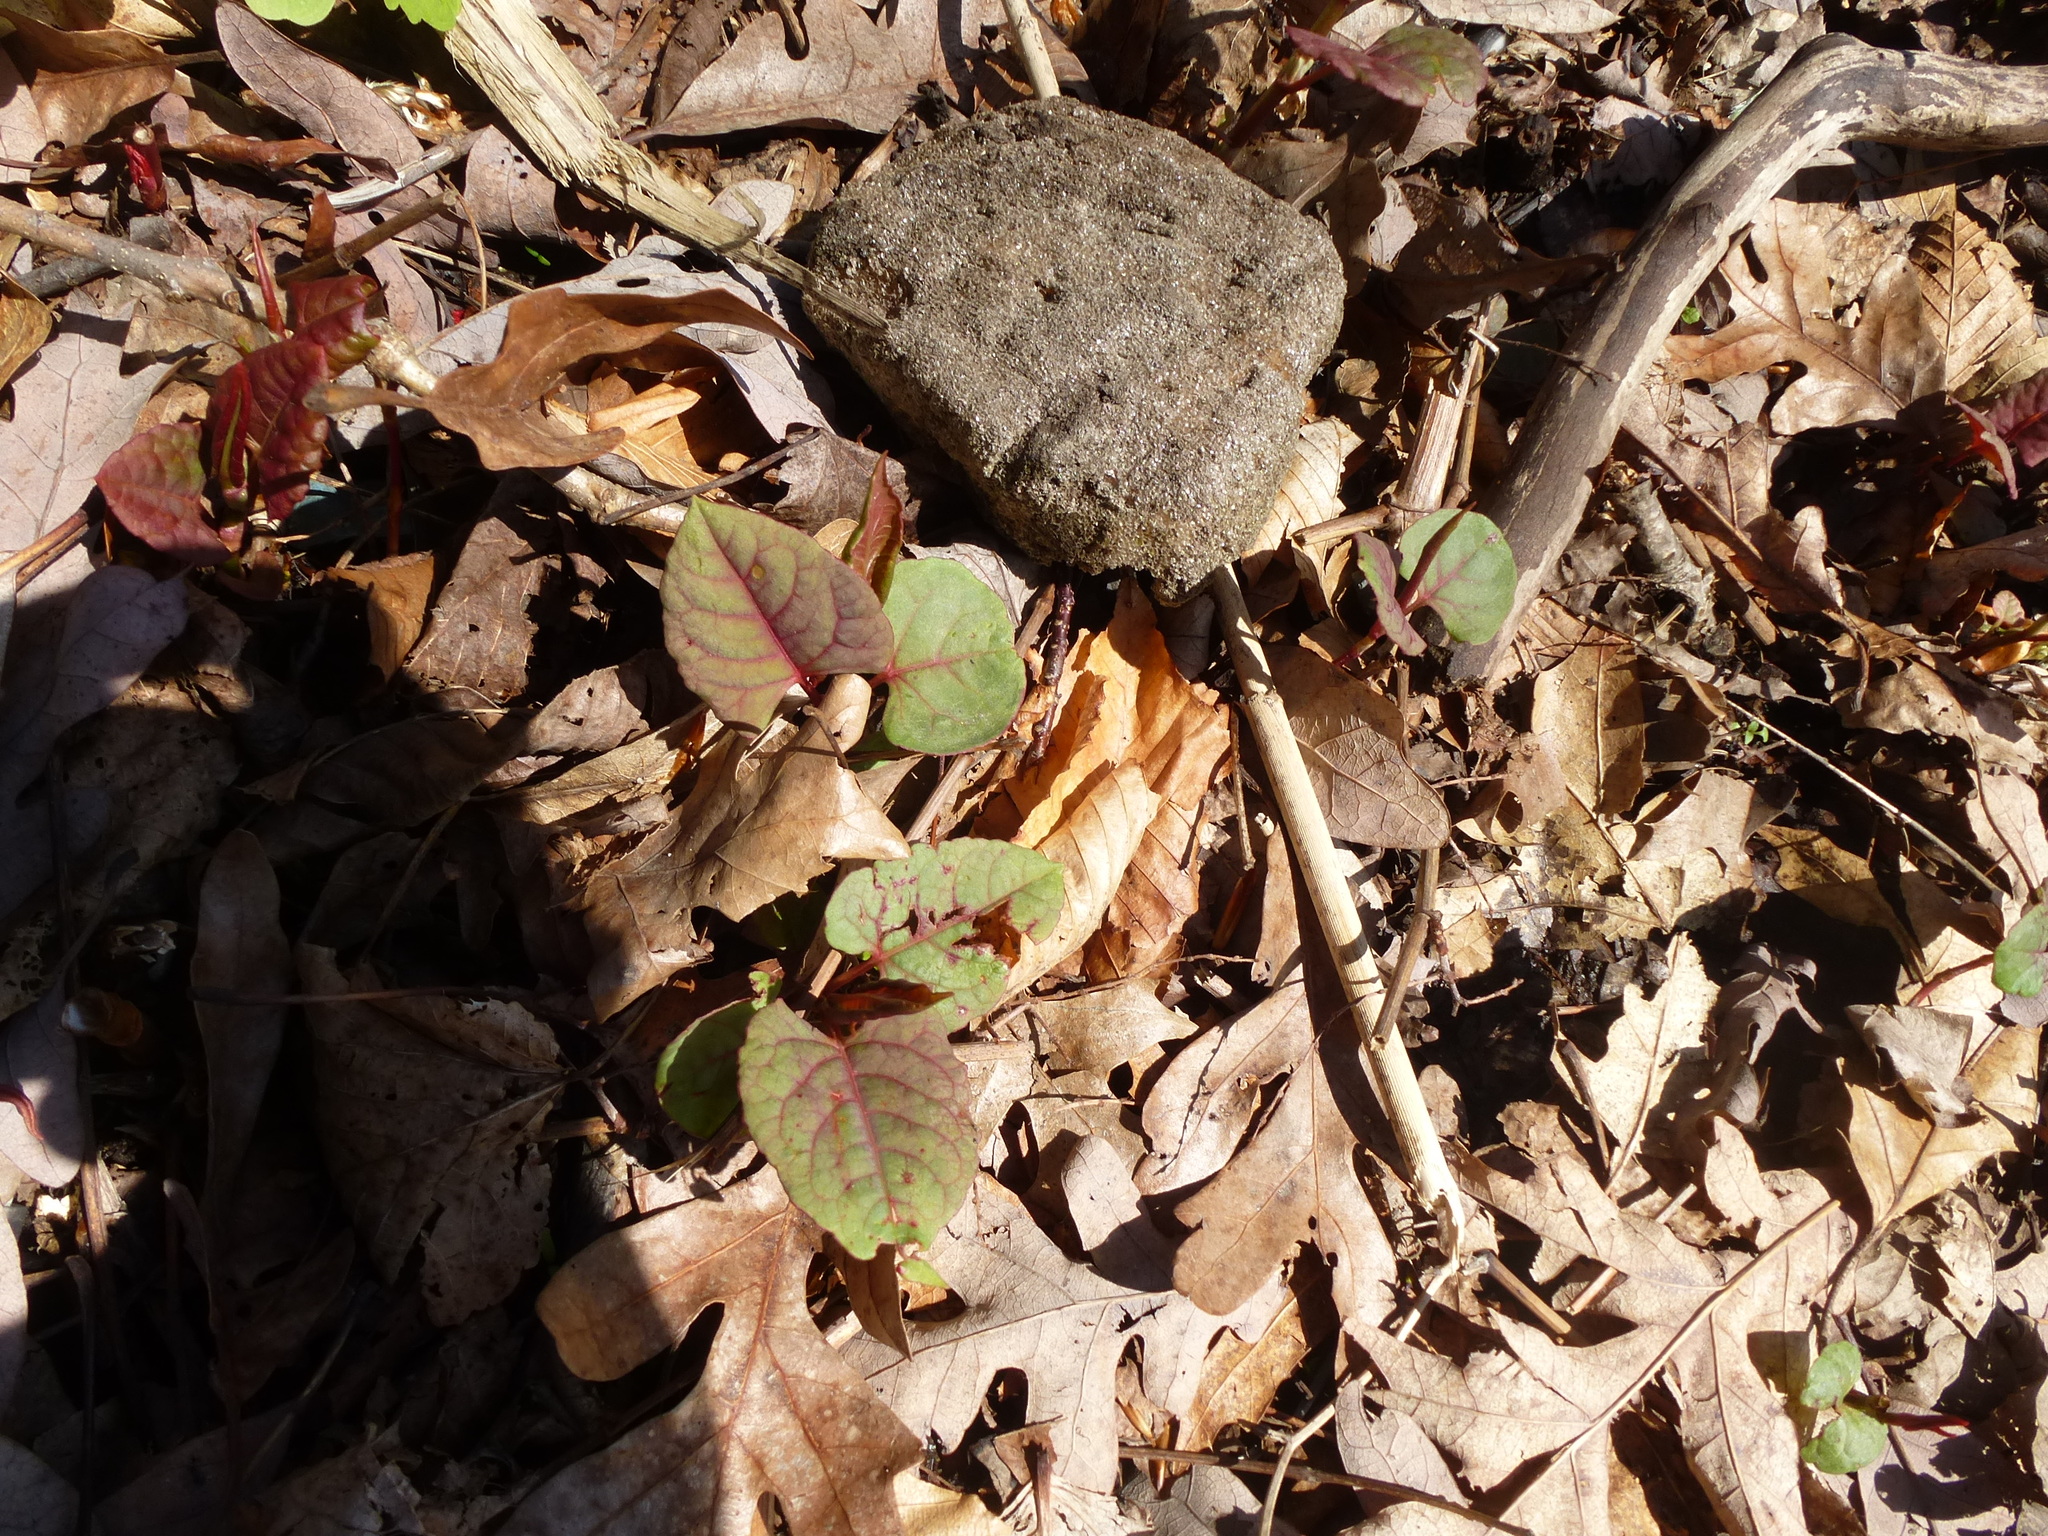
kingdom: Plantae
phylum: Tracheophyta
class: Magnoliopsida
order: Caryophyllales
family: Polygonaceae
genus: Reynoutria
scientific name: Reynoutria japonica
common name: Japanese knotweed
